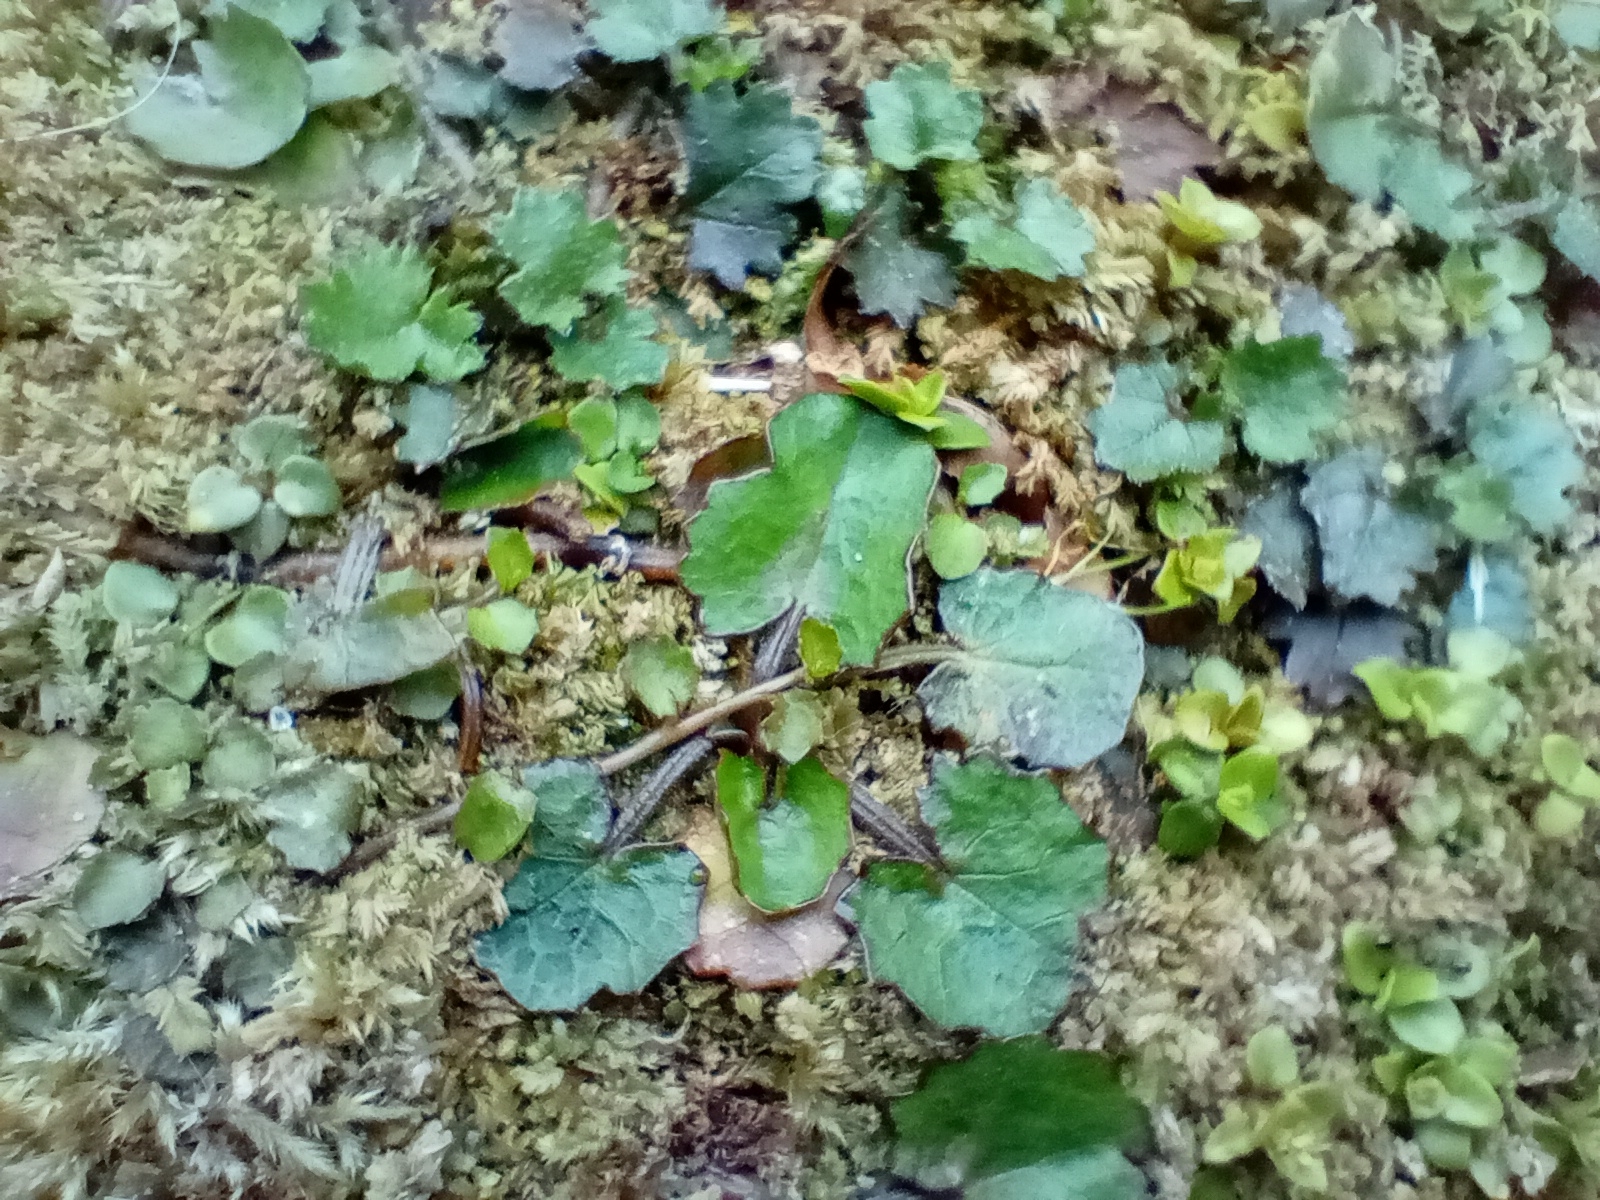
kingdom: Plantae
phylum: Tracheophyta
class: Magnoliopsida
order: Apiales
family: Apiaceae
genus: Centella
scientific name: Centella uniflora
